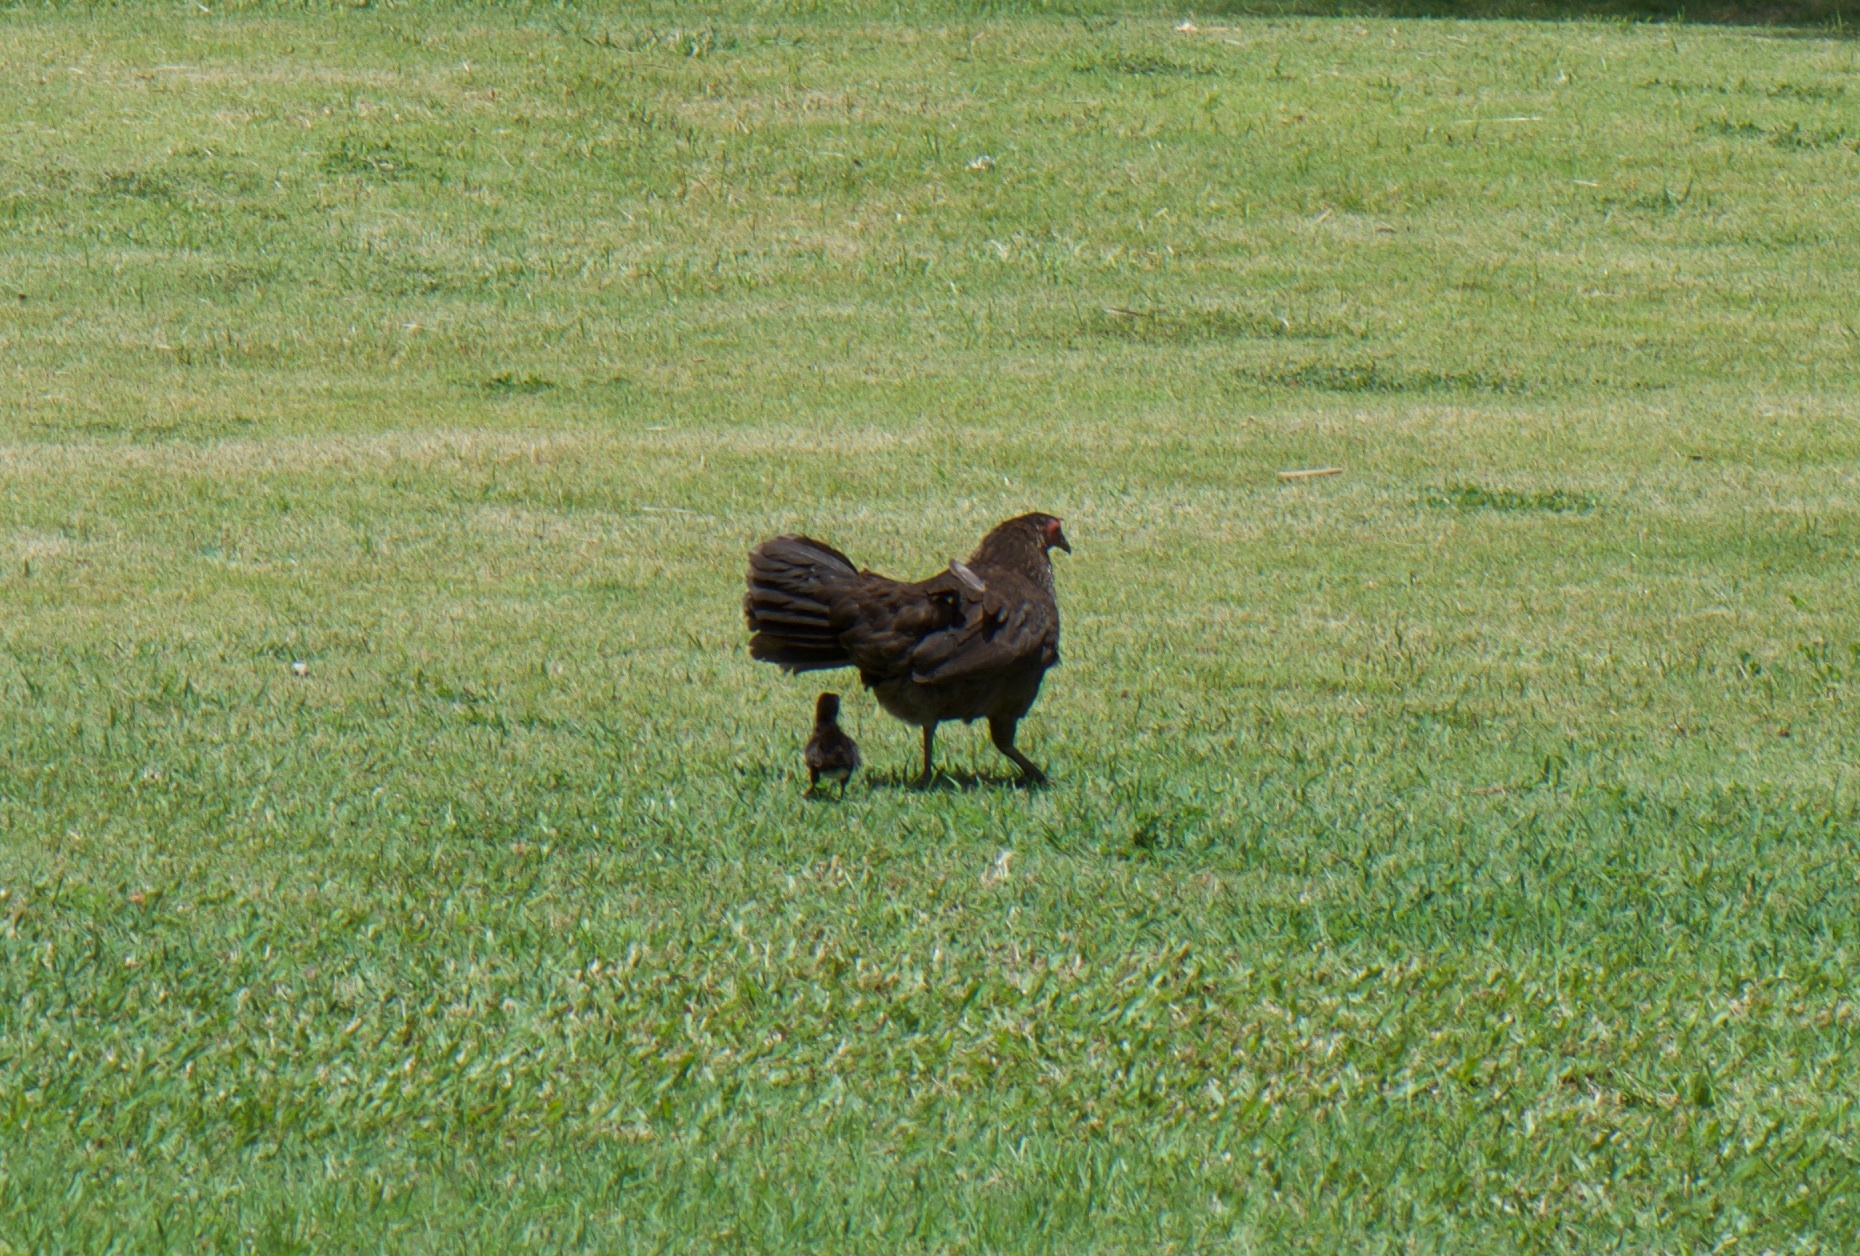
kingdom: Animalia
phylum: Chordata
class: Aves
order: Galliformes
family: Phasianidae
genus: Gallus
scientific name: Gallus gallus
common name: Red junglefowl
